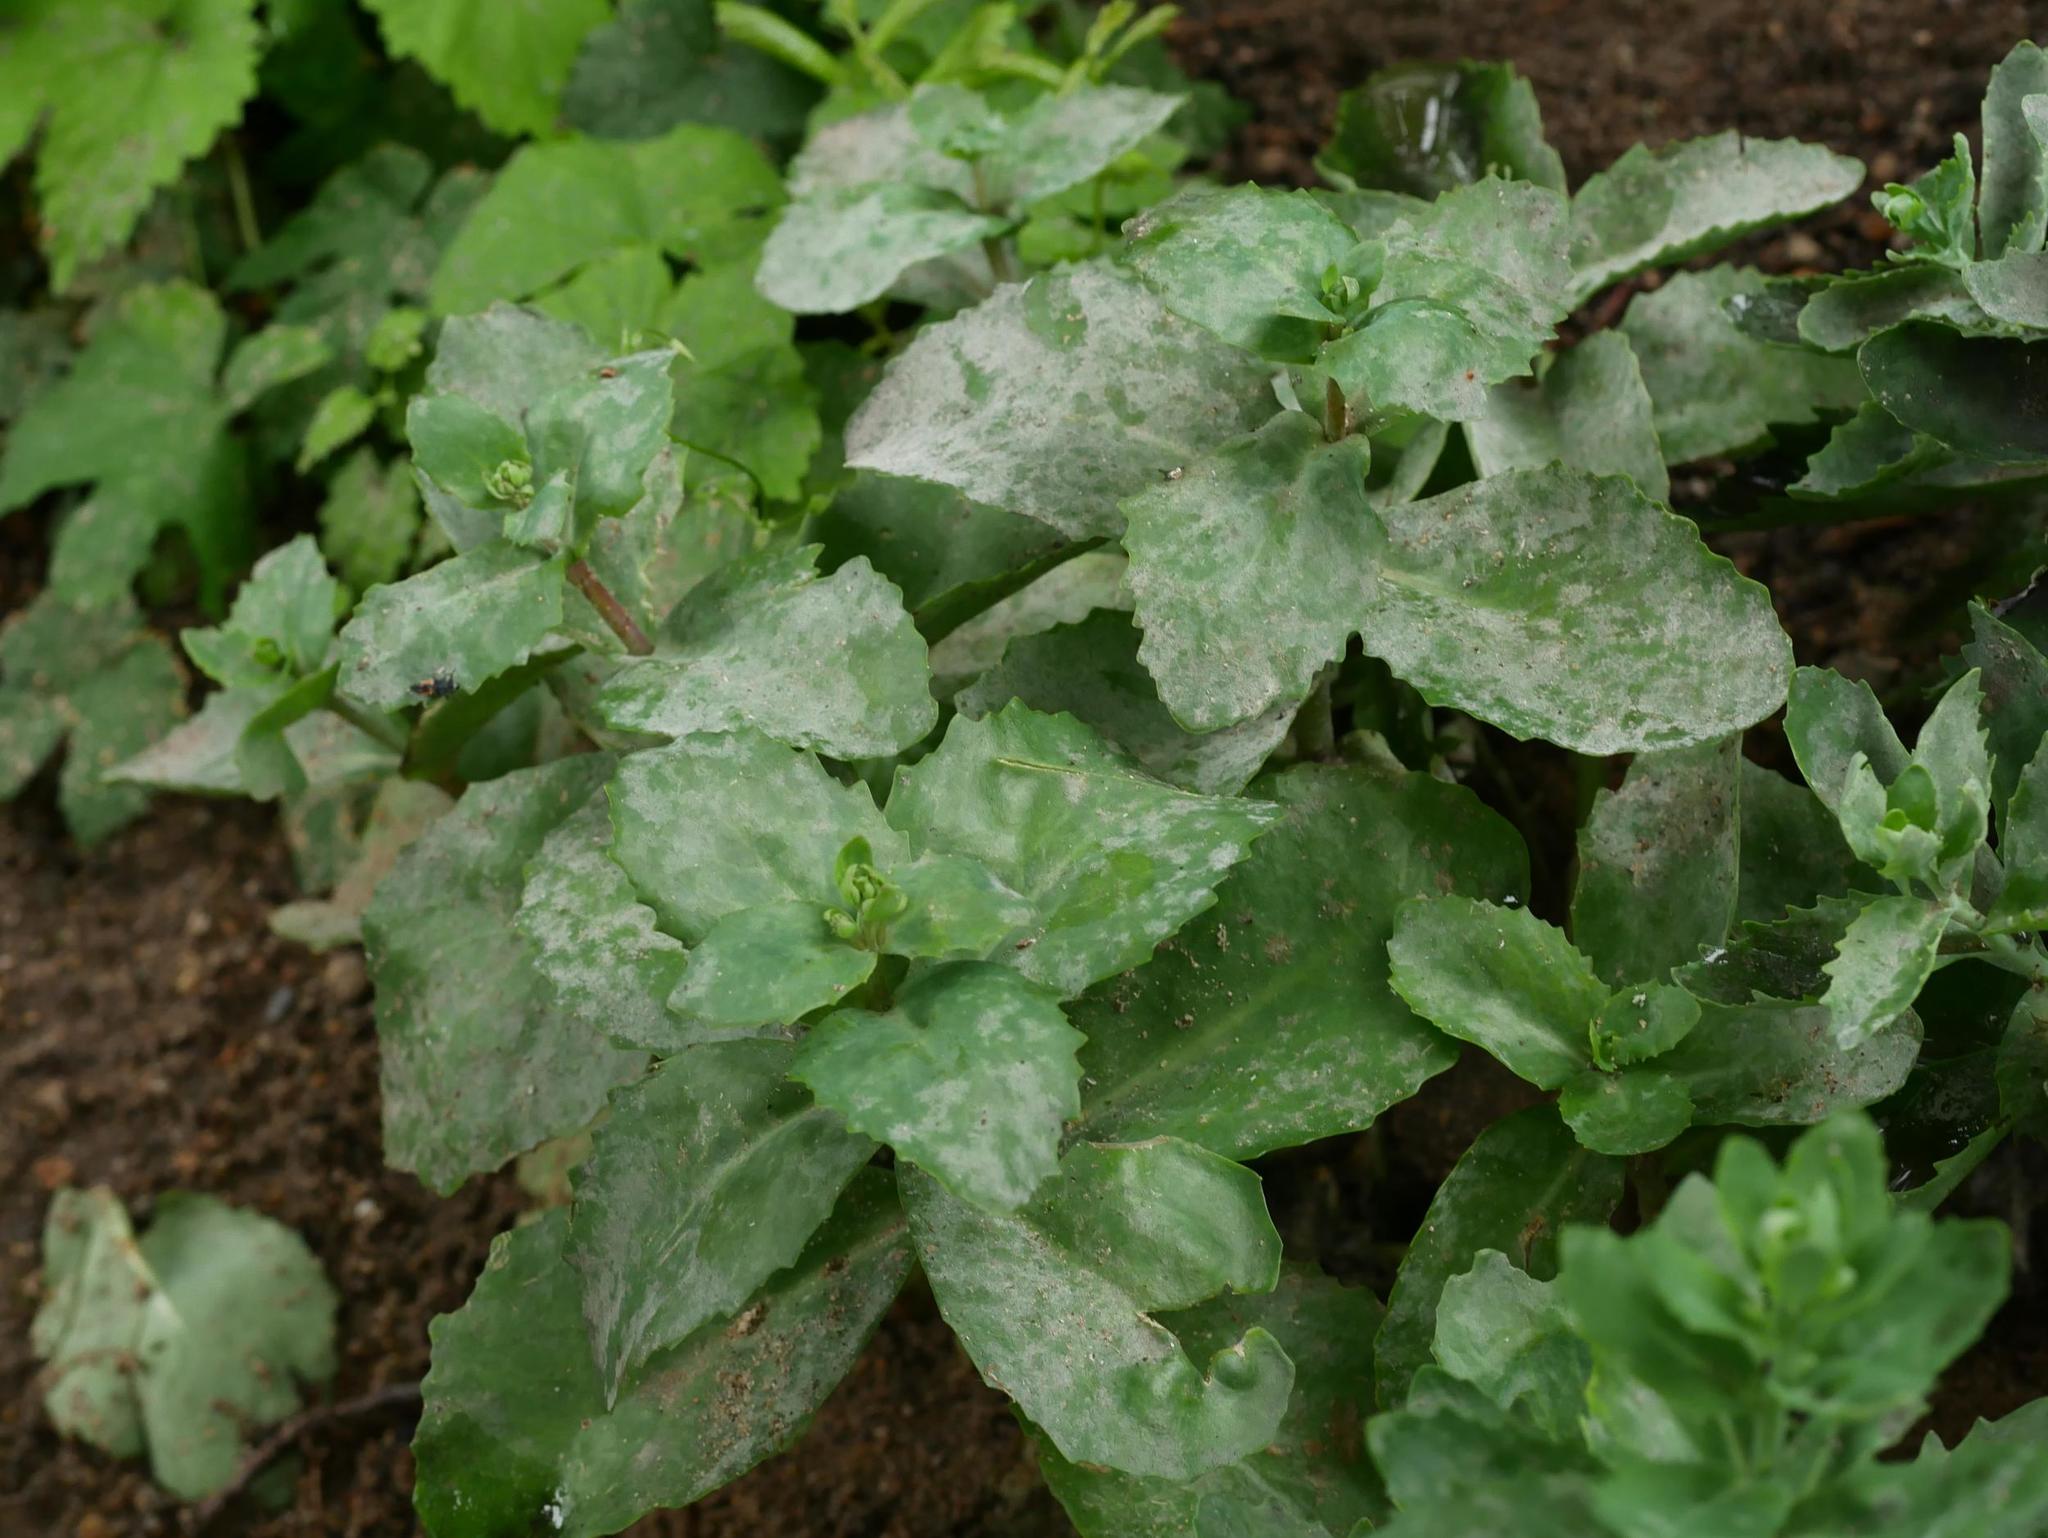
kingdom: Fungi
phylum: Ascomycota
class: Leotiomycetes
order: Helotiales
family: Erysiphaceae
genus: Erysiphe
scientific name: Erysiphe sedi
